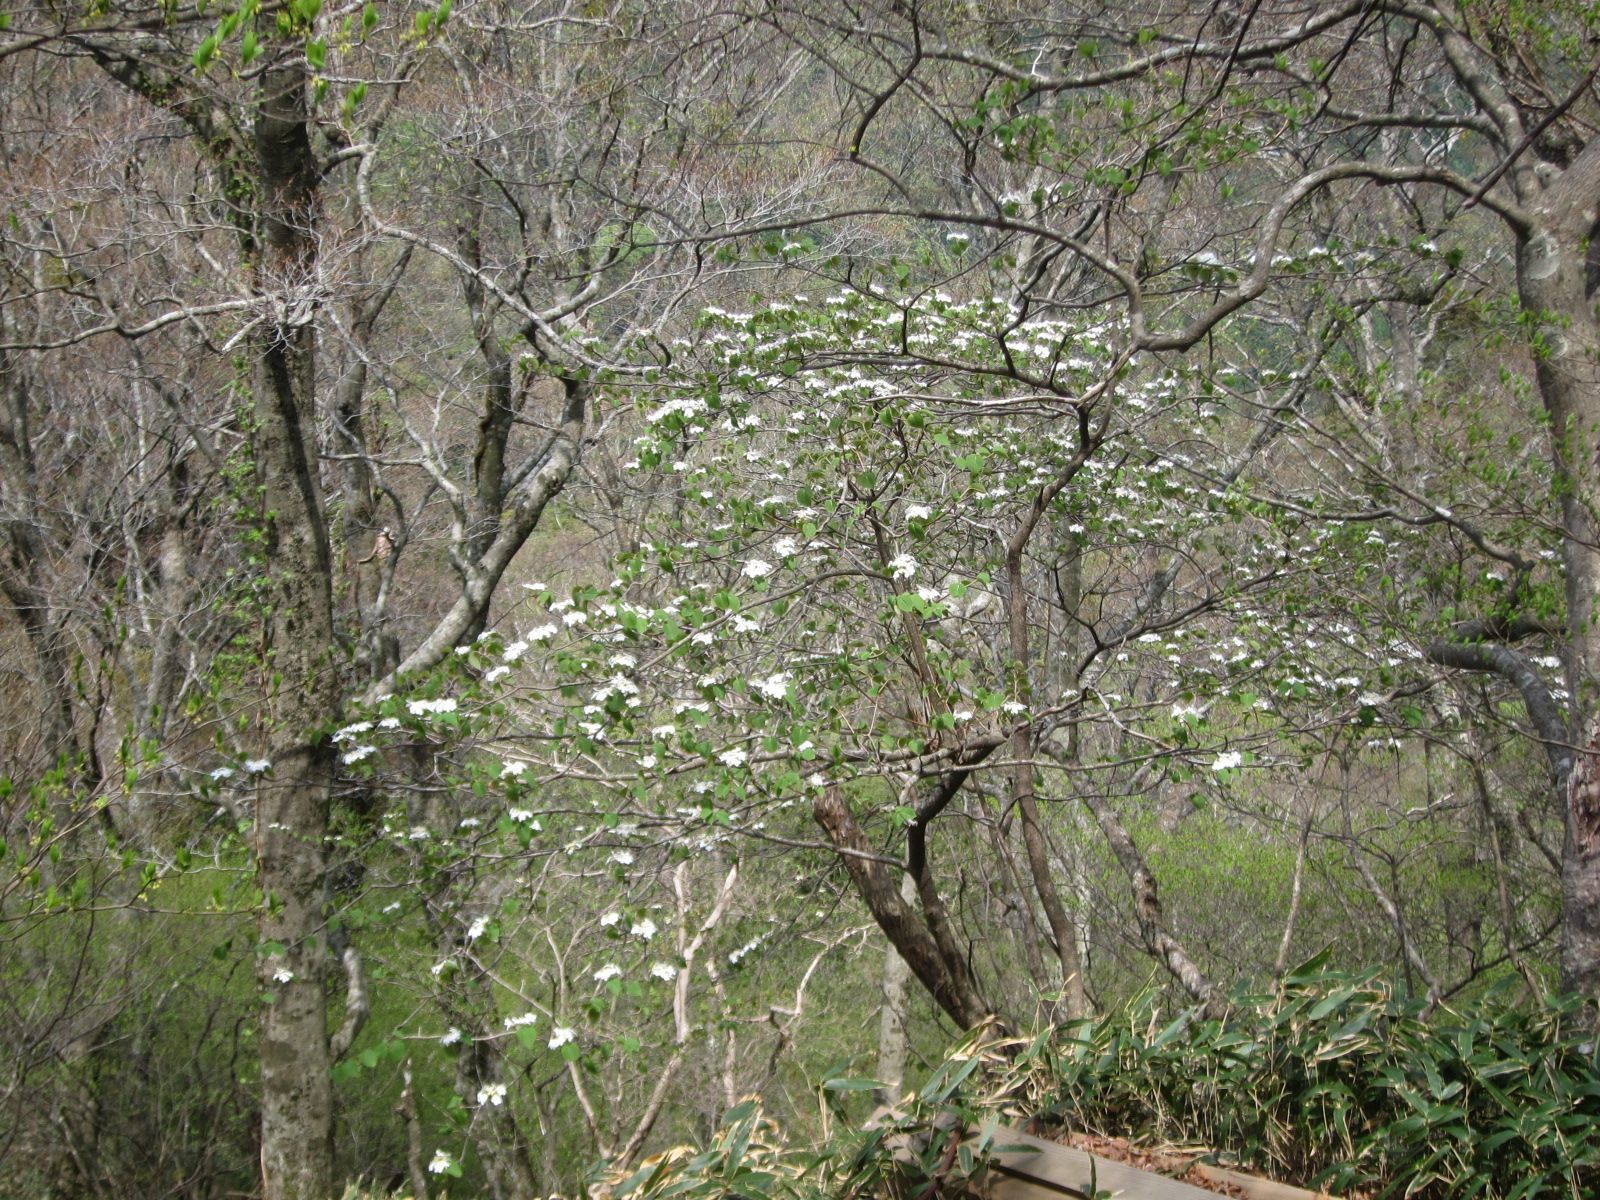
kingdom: Plantae
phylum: Tracheophyta
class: Magnoliopsida
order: Dipsacales
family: Viburnaceae
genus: Viburnum
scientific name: Viburnum furcatum
